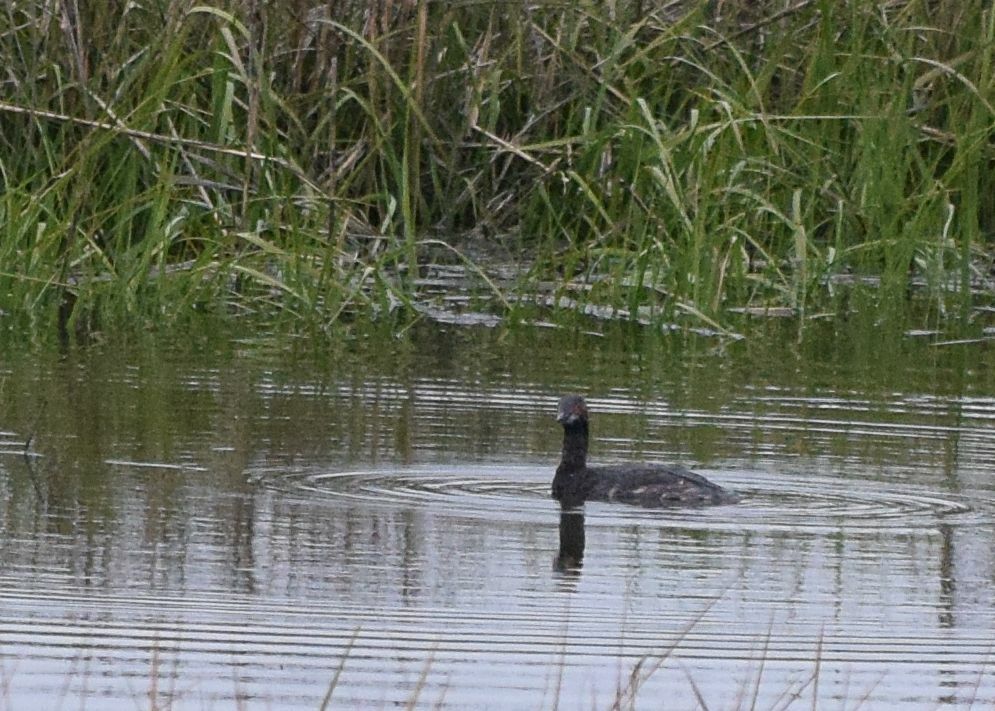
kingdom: Animalia
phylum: Chordata
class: Aves
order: Podicipediformes
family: Podicipedidae
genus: Podiceps
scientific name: Podiceps nigricollis
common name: Black-necked grebe
